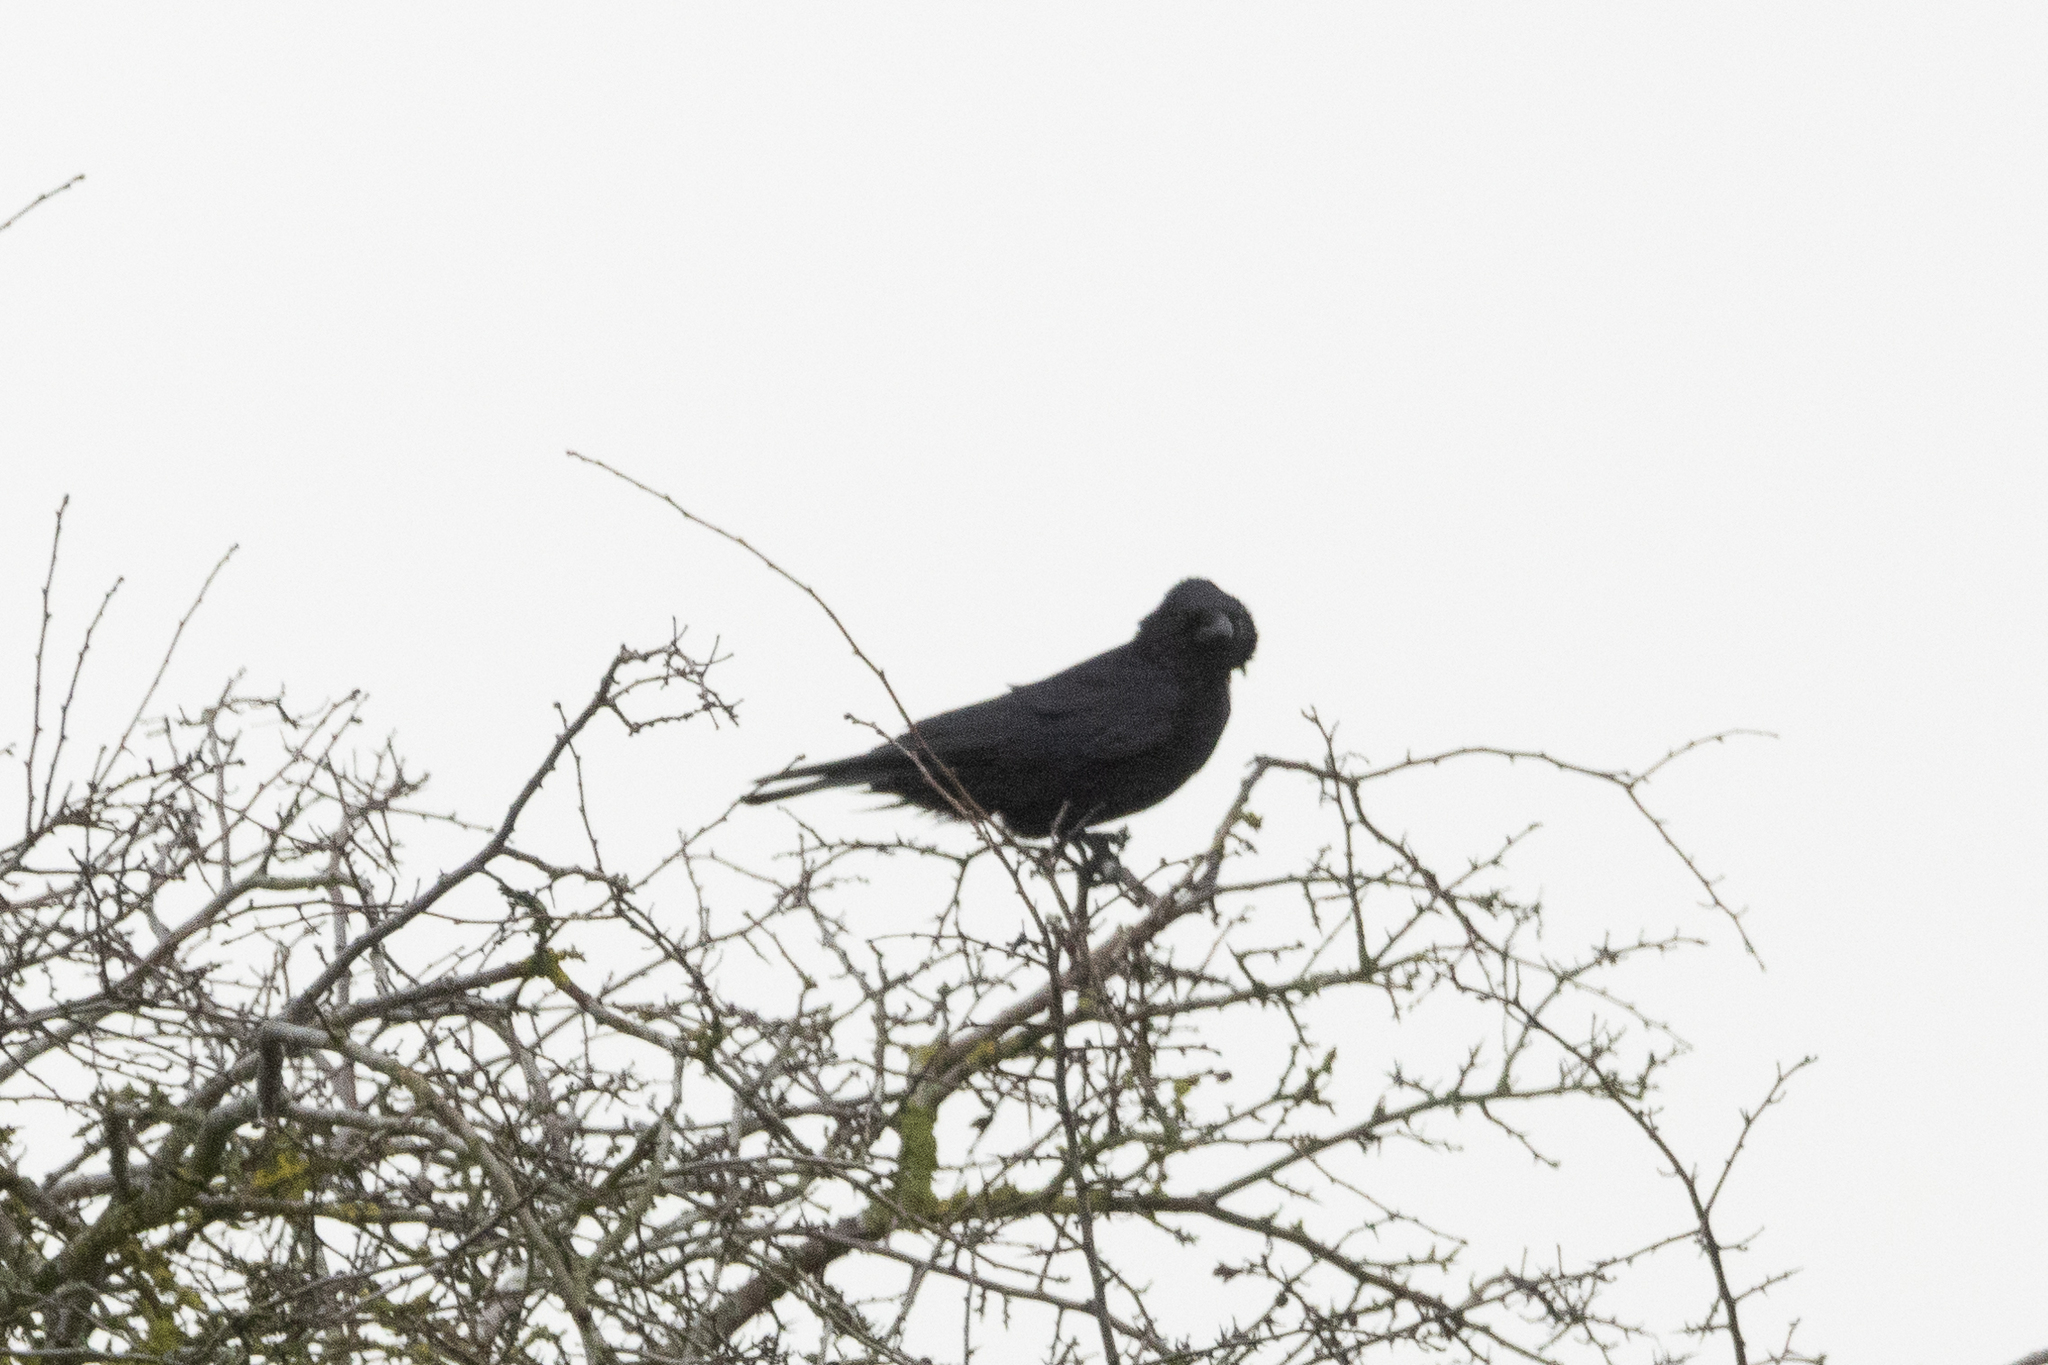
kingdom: Animalia
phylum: Chordata
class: Aves
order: Passeriformes
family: Corvidae
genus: Corvus
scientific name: Corvus corone
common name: Carrion crow
